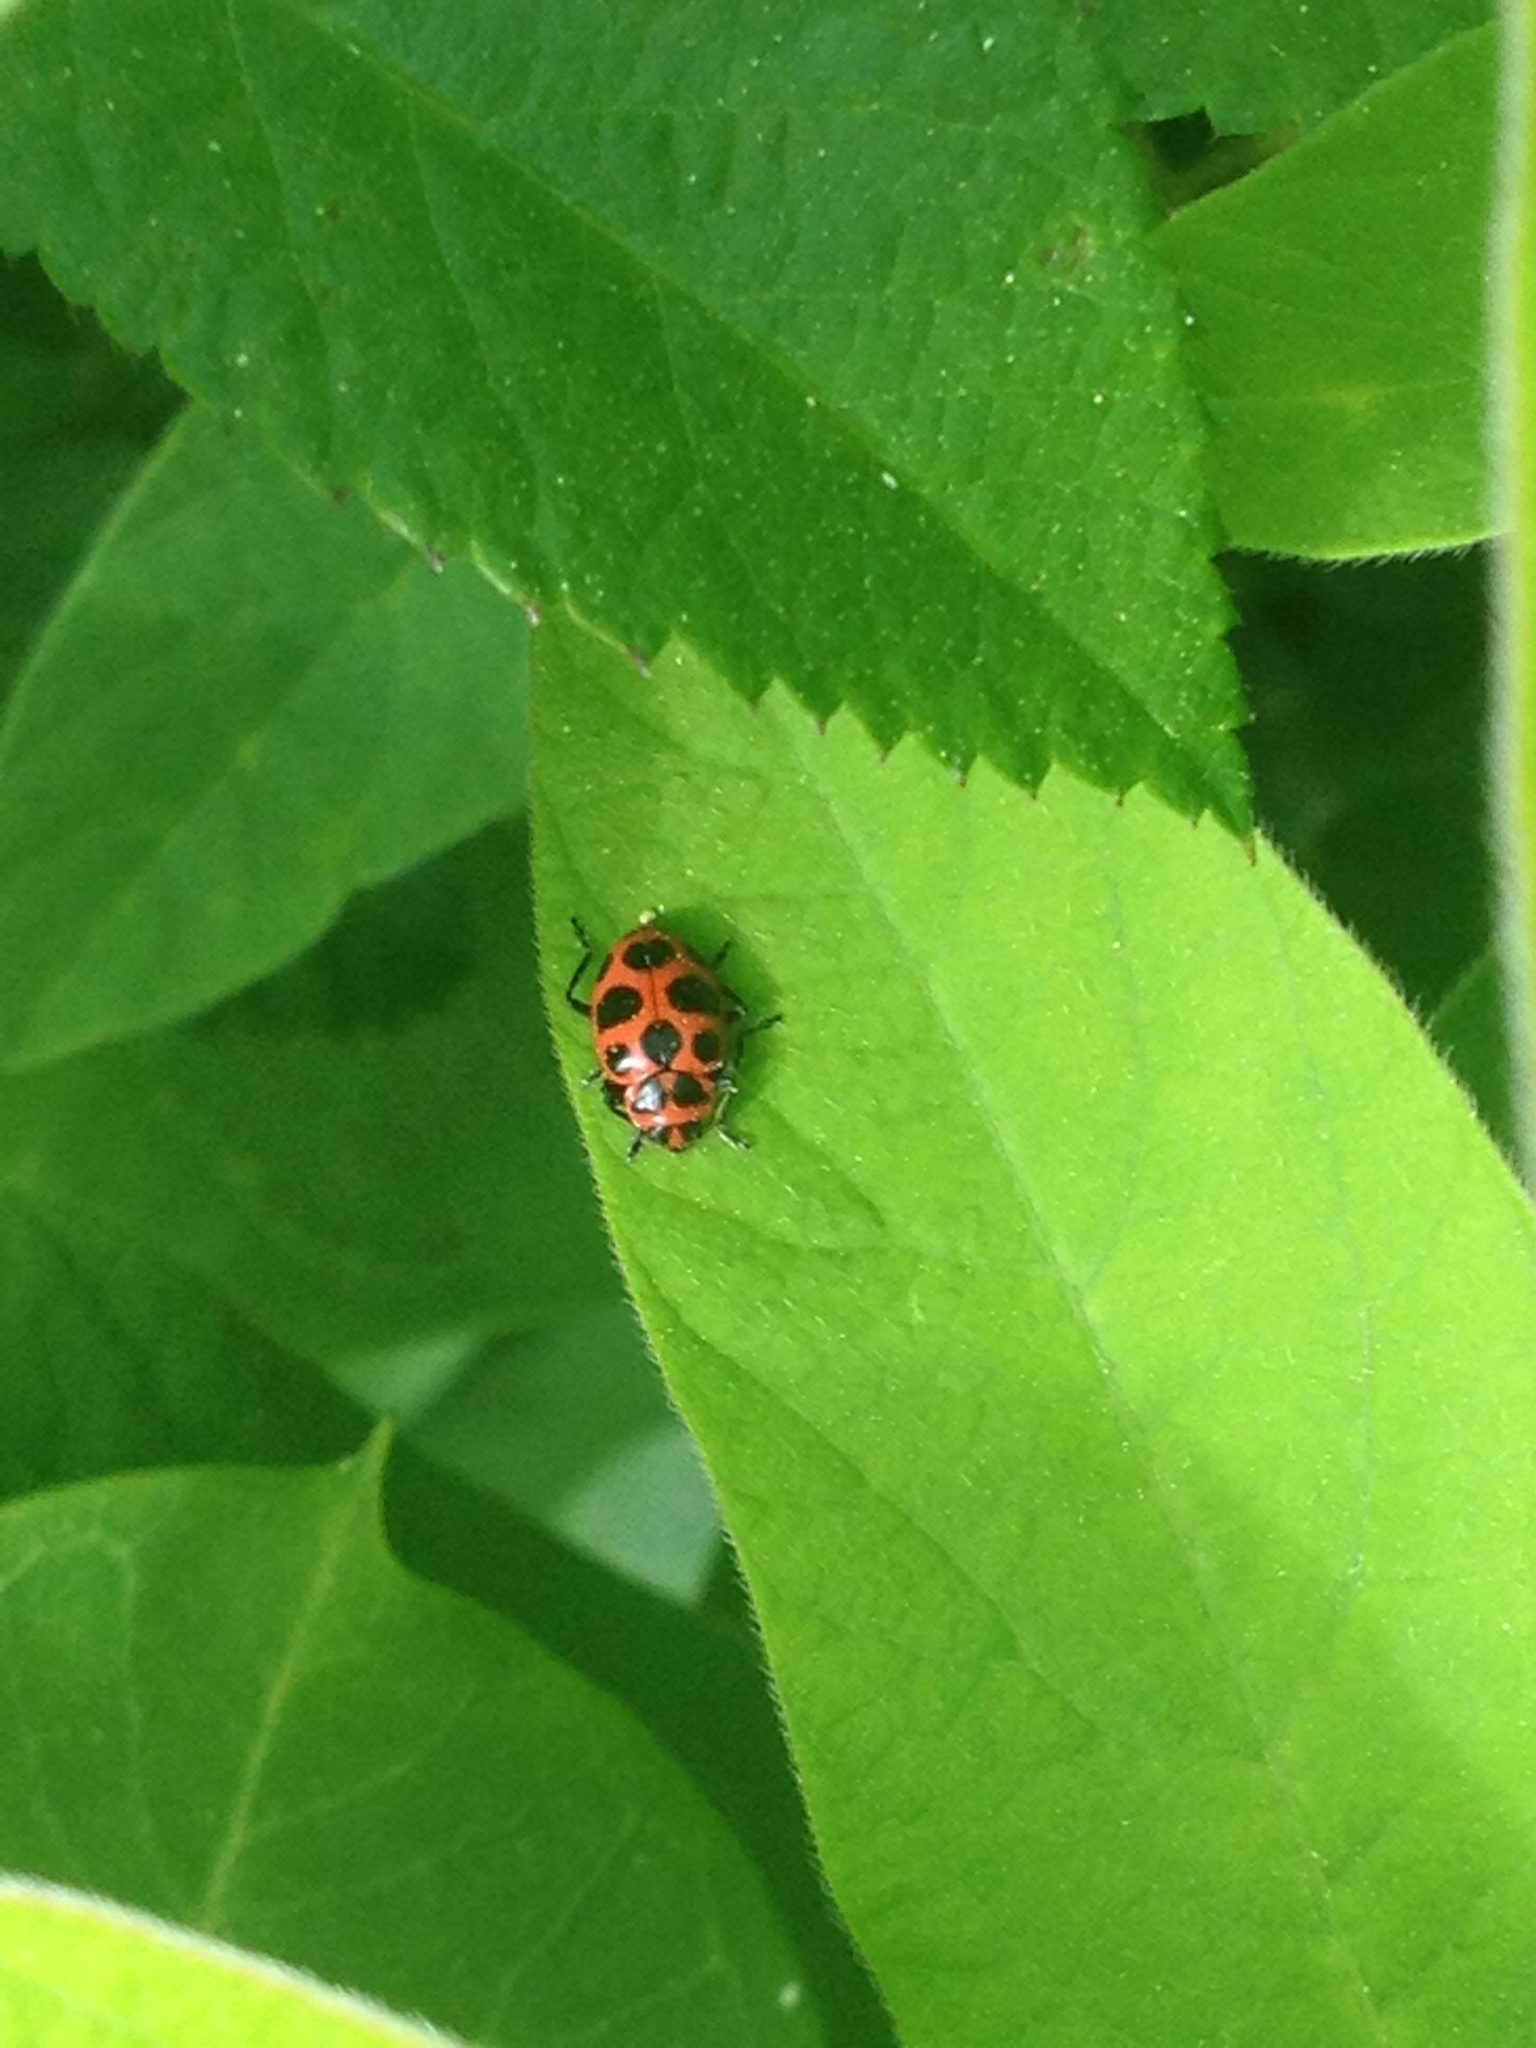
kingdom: Animalia
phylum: Arthropoda
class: Insecta
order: Coleoptera
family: Coccinellidae
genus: Coleomegilla
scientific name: Coleomegilla maculata
